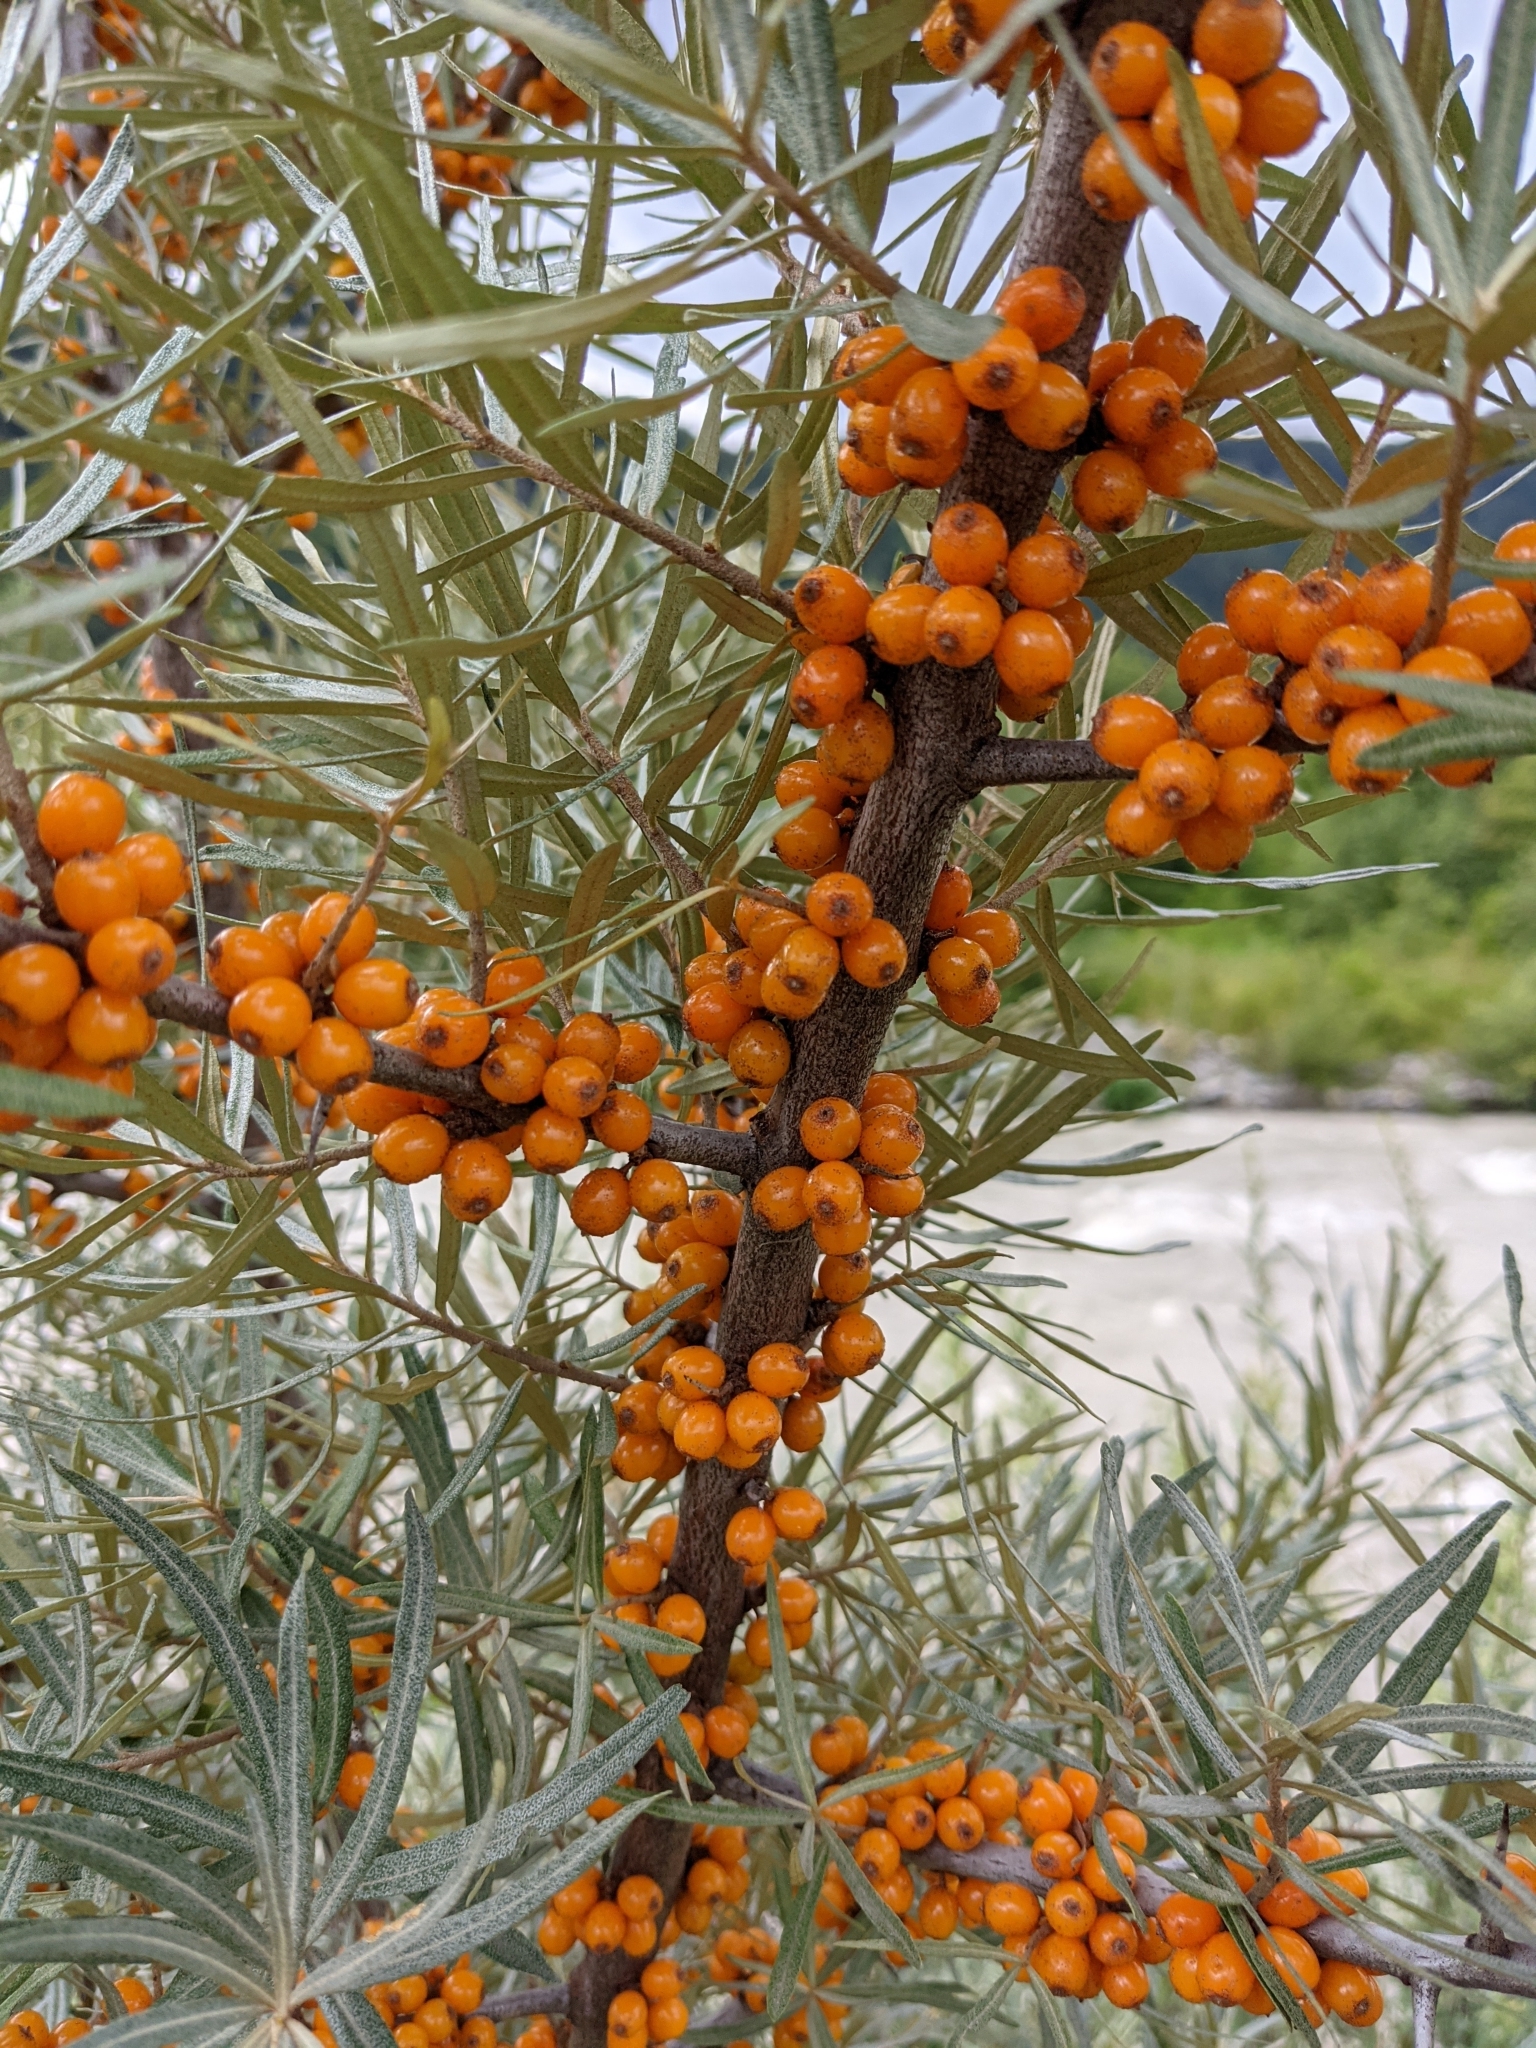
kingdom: Plantae
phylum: Tracheophyta
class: Magnoliopsida
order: Rosales
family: Elaeagnaceae
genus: Hippophae
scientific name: Hippophae rhamnoides
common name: Sea-buckthorn
